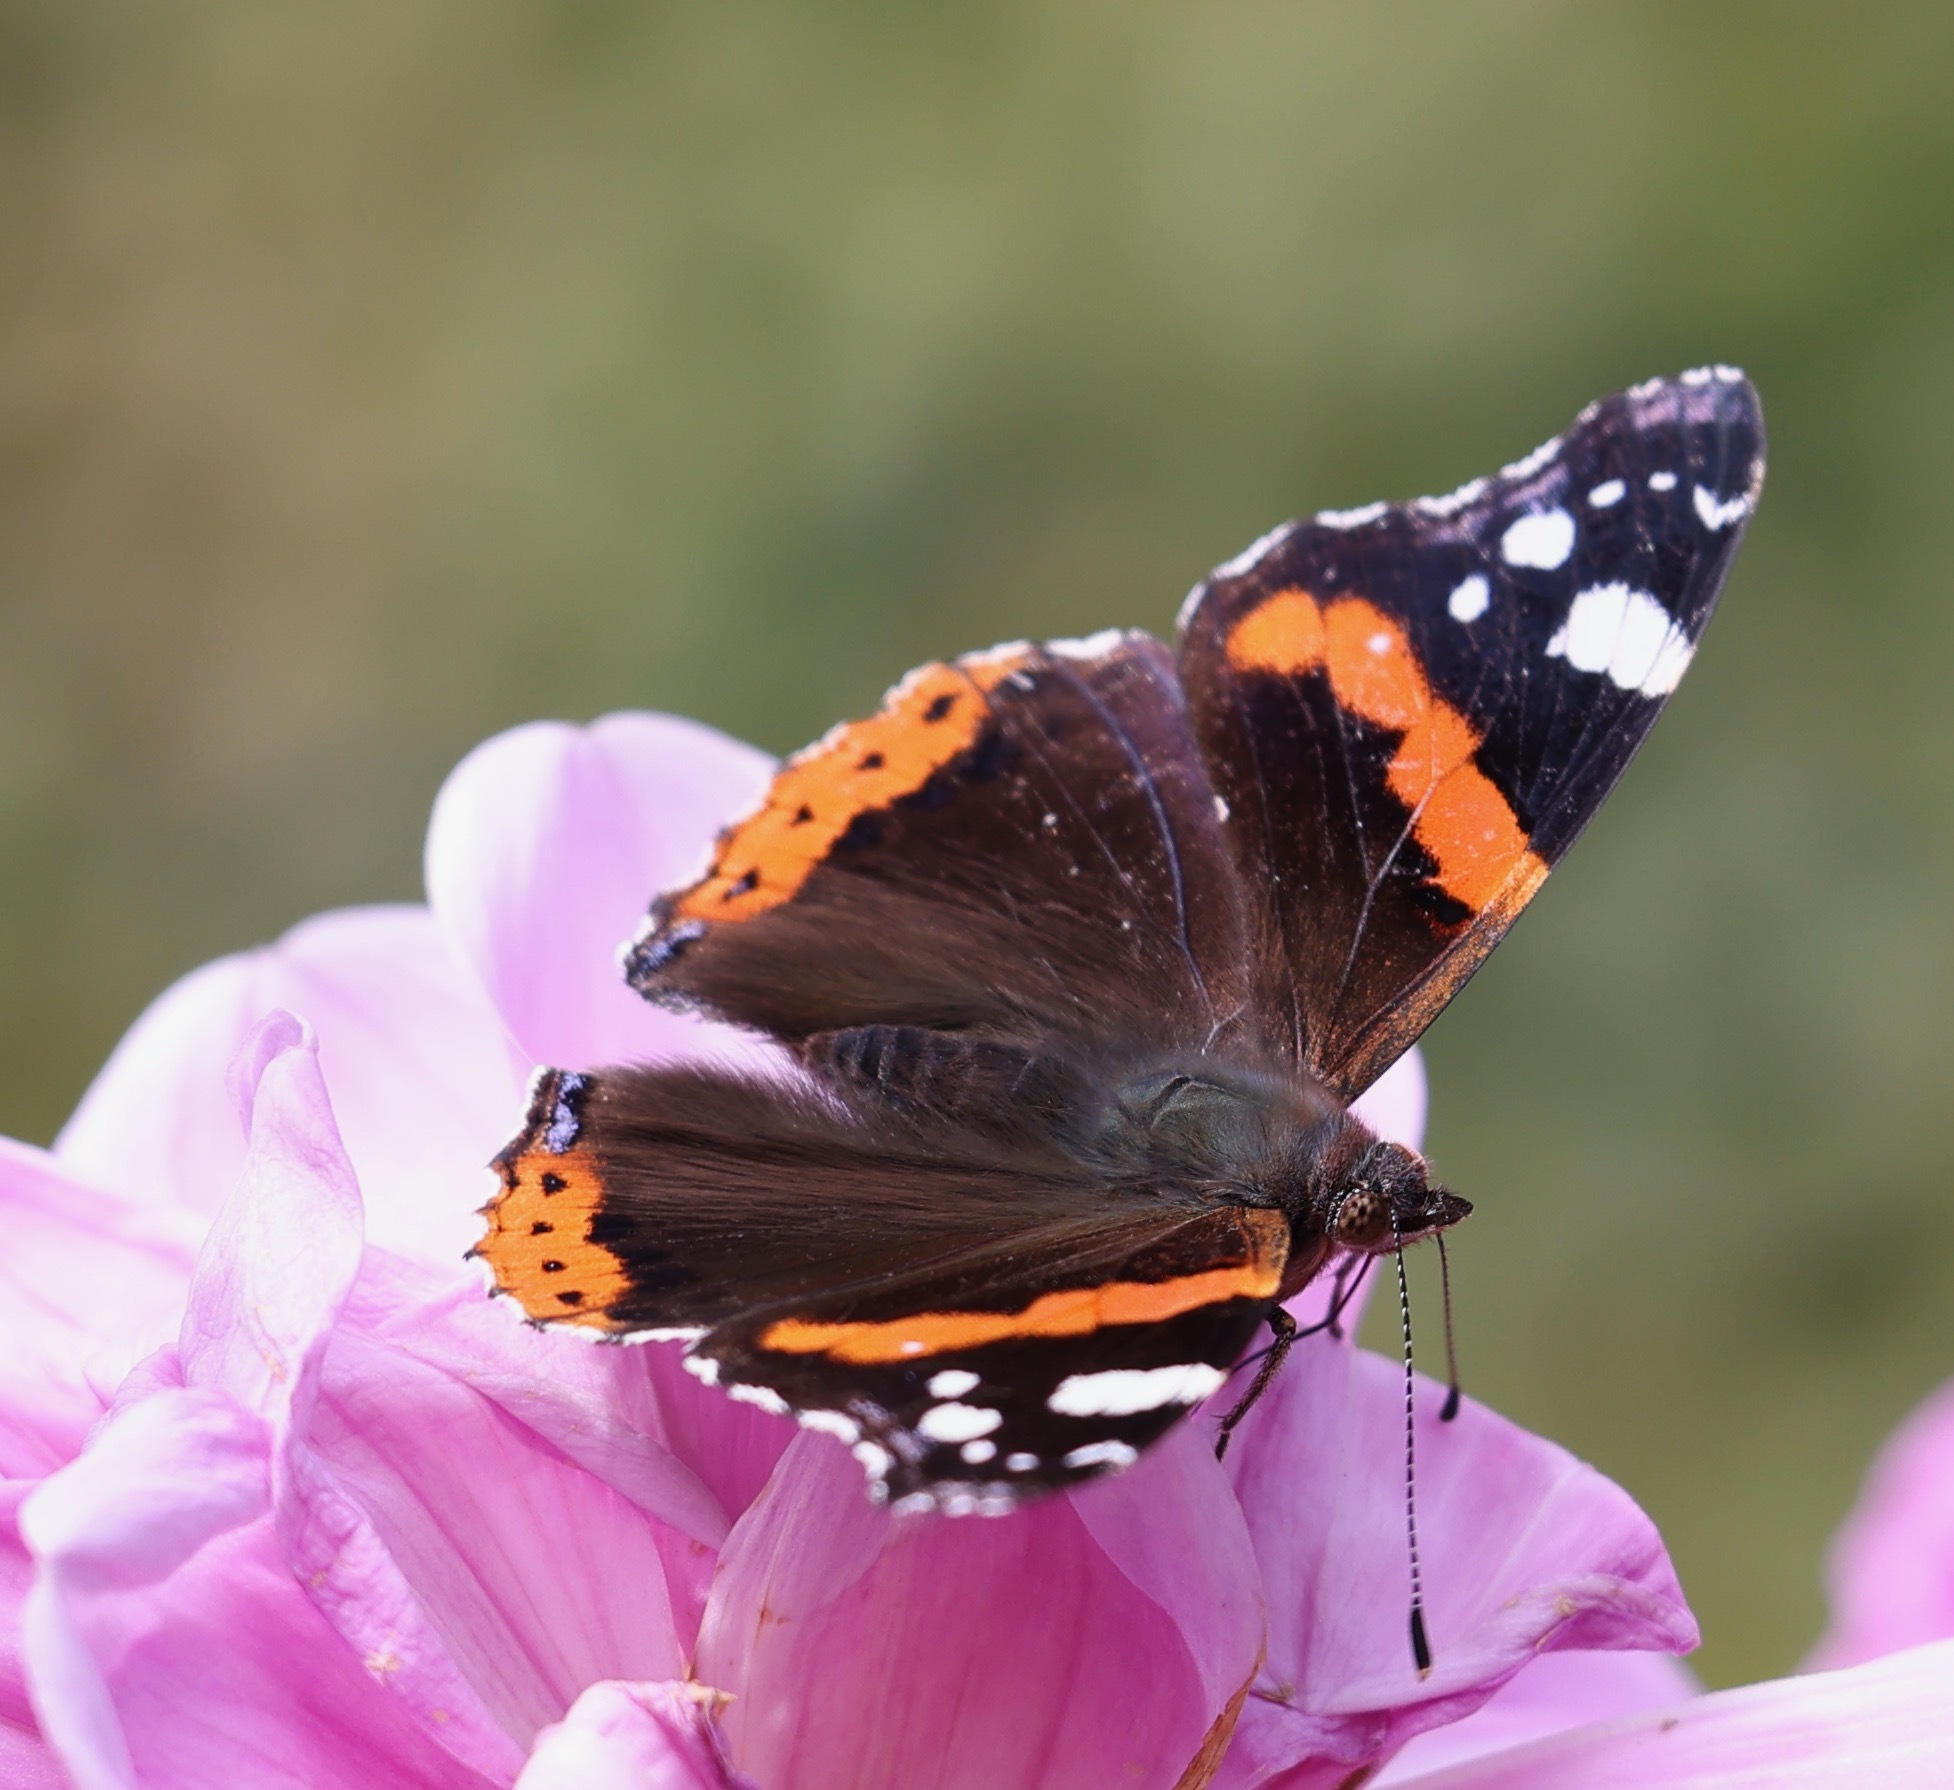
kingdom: Animalia
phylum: Arthropoda
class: Insecta
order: Lepidoptera
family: Nymphalidae
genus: Vanessa
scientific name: Vanessa atalanta
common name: Red admiral
